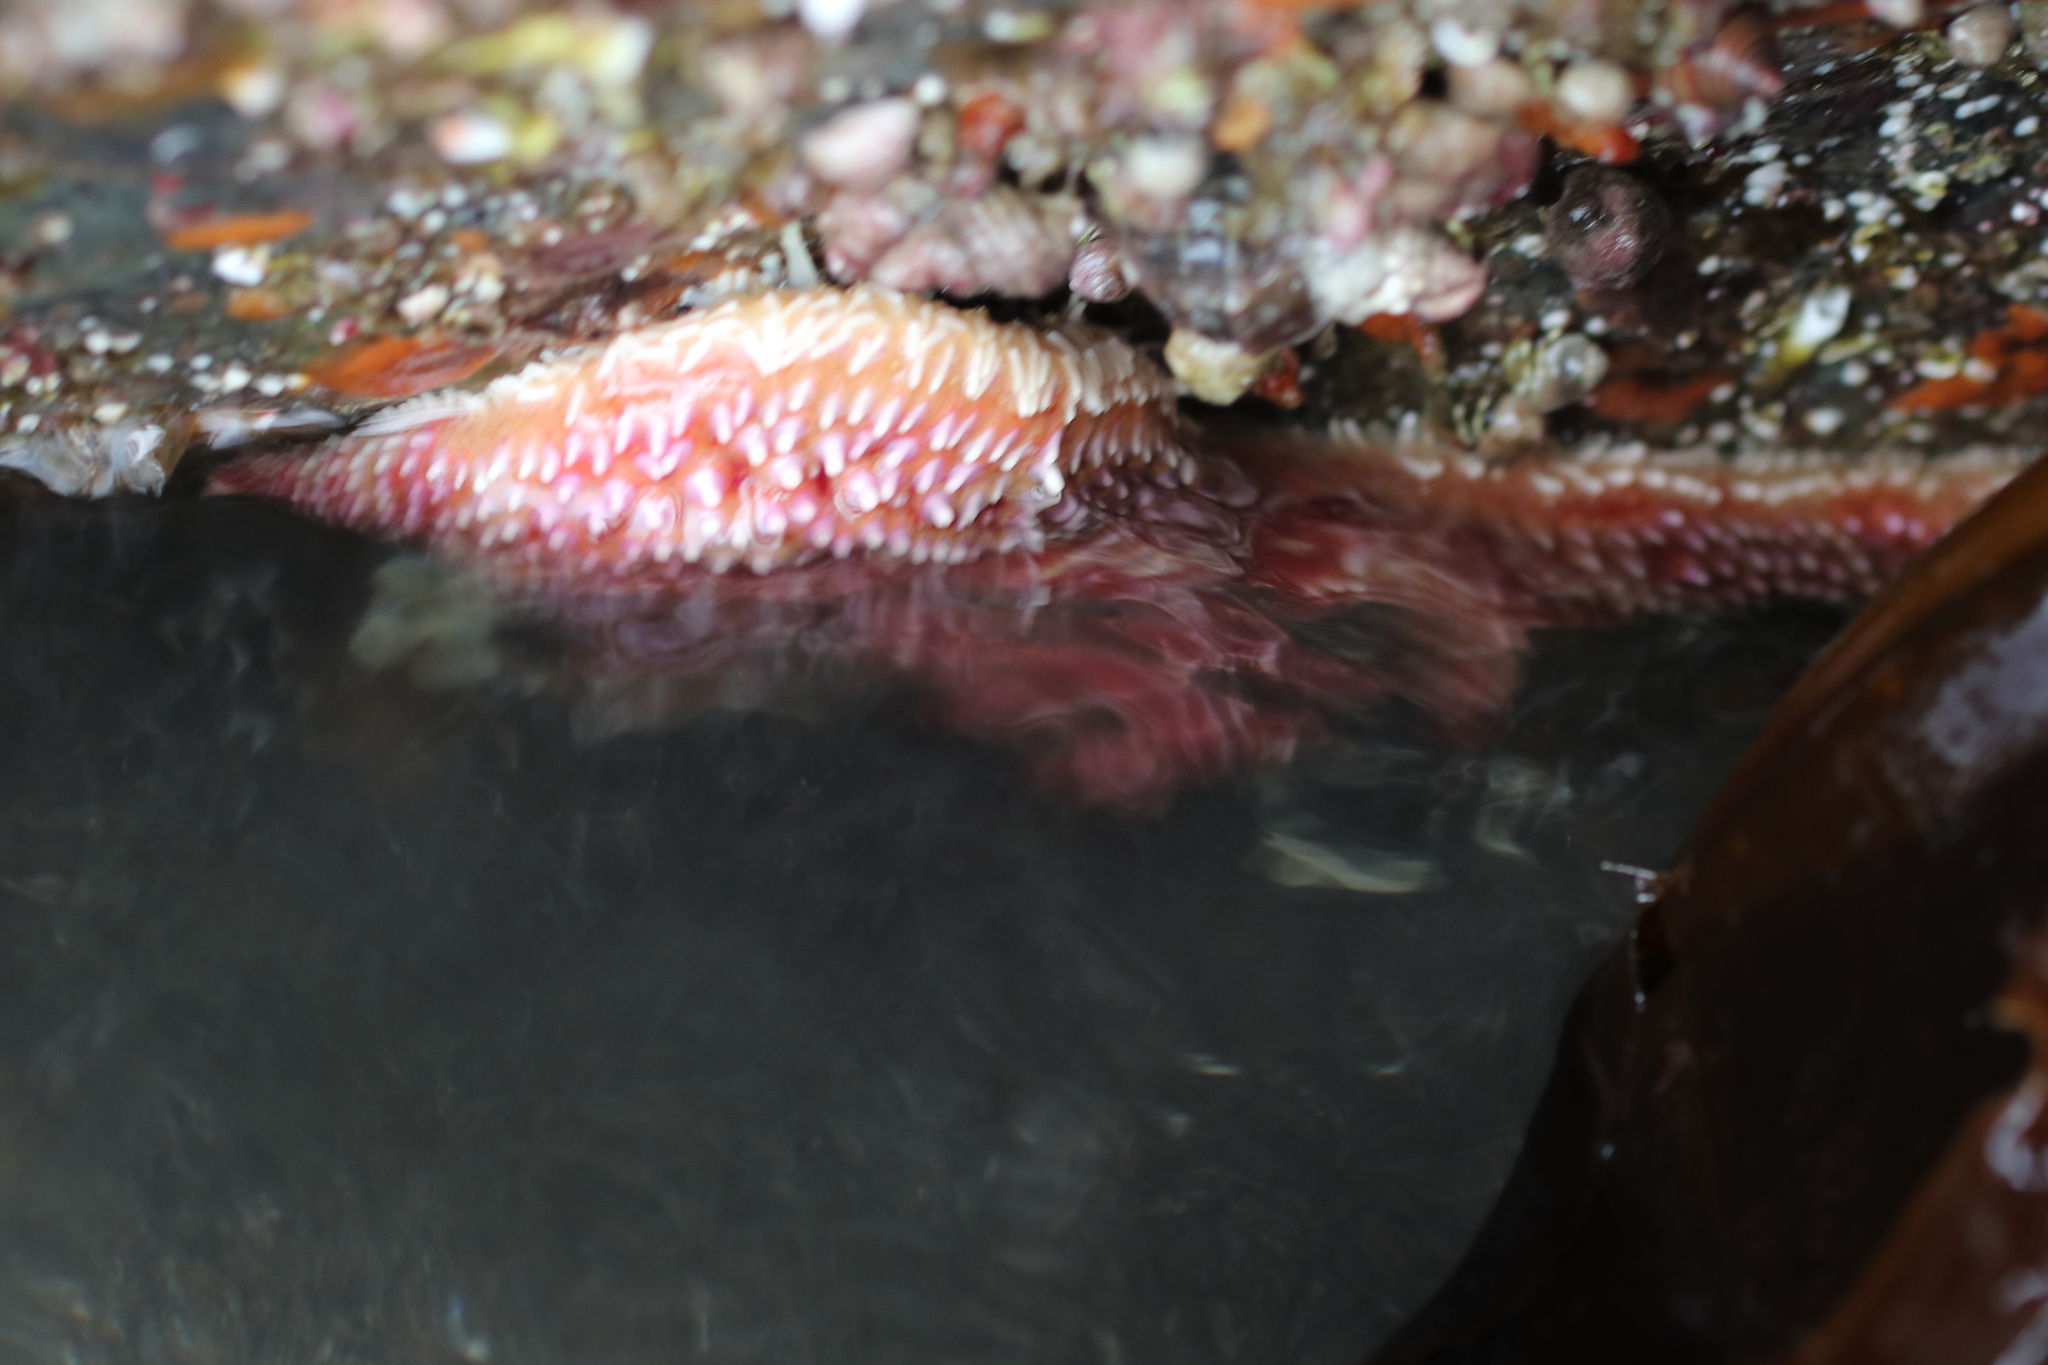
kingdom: Animalia
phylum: Echinodermata
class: Asteroidea
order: Forcipulatida
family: Asteriidae
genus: Orthasterias
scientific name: Orthasterias koehleri
